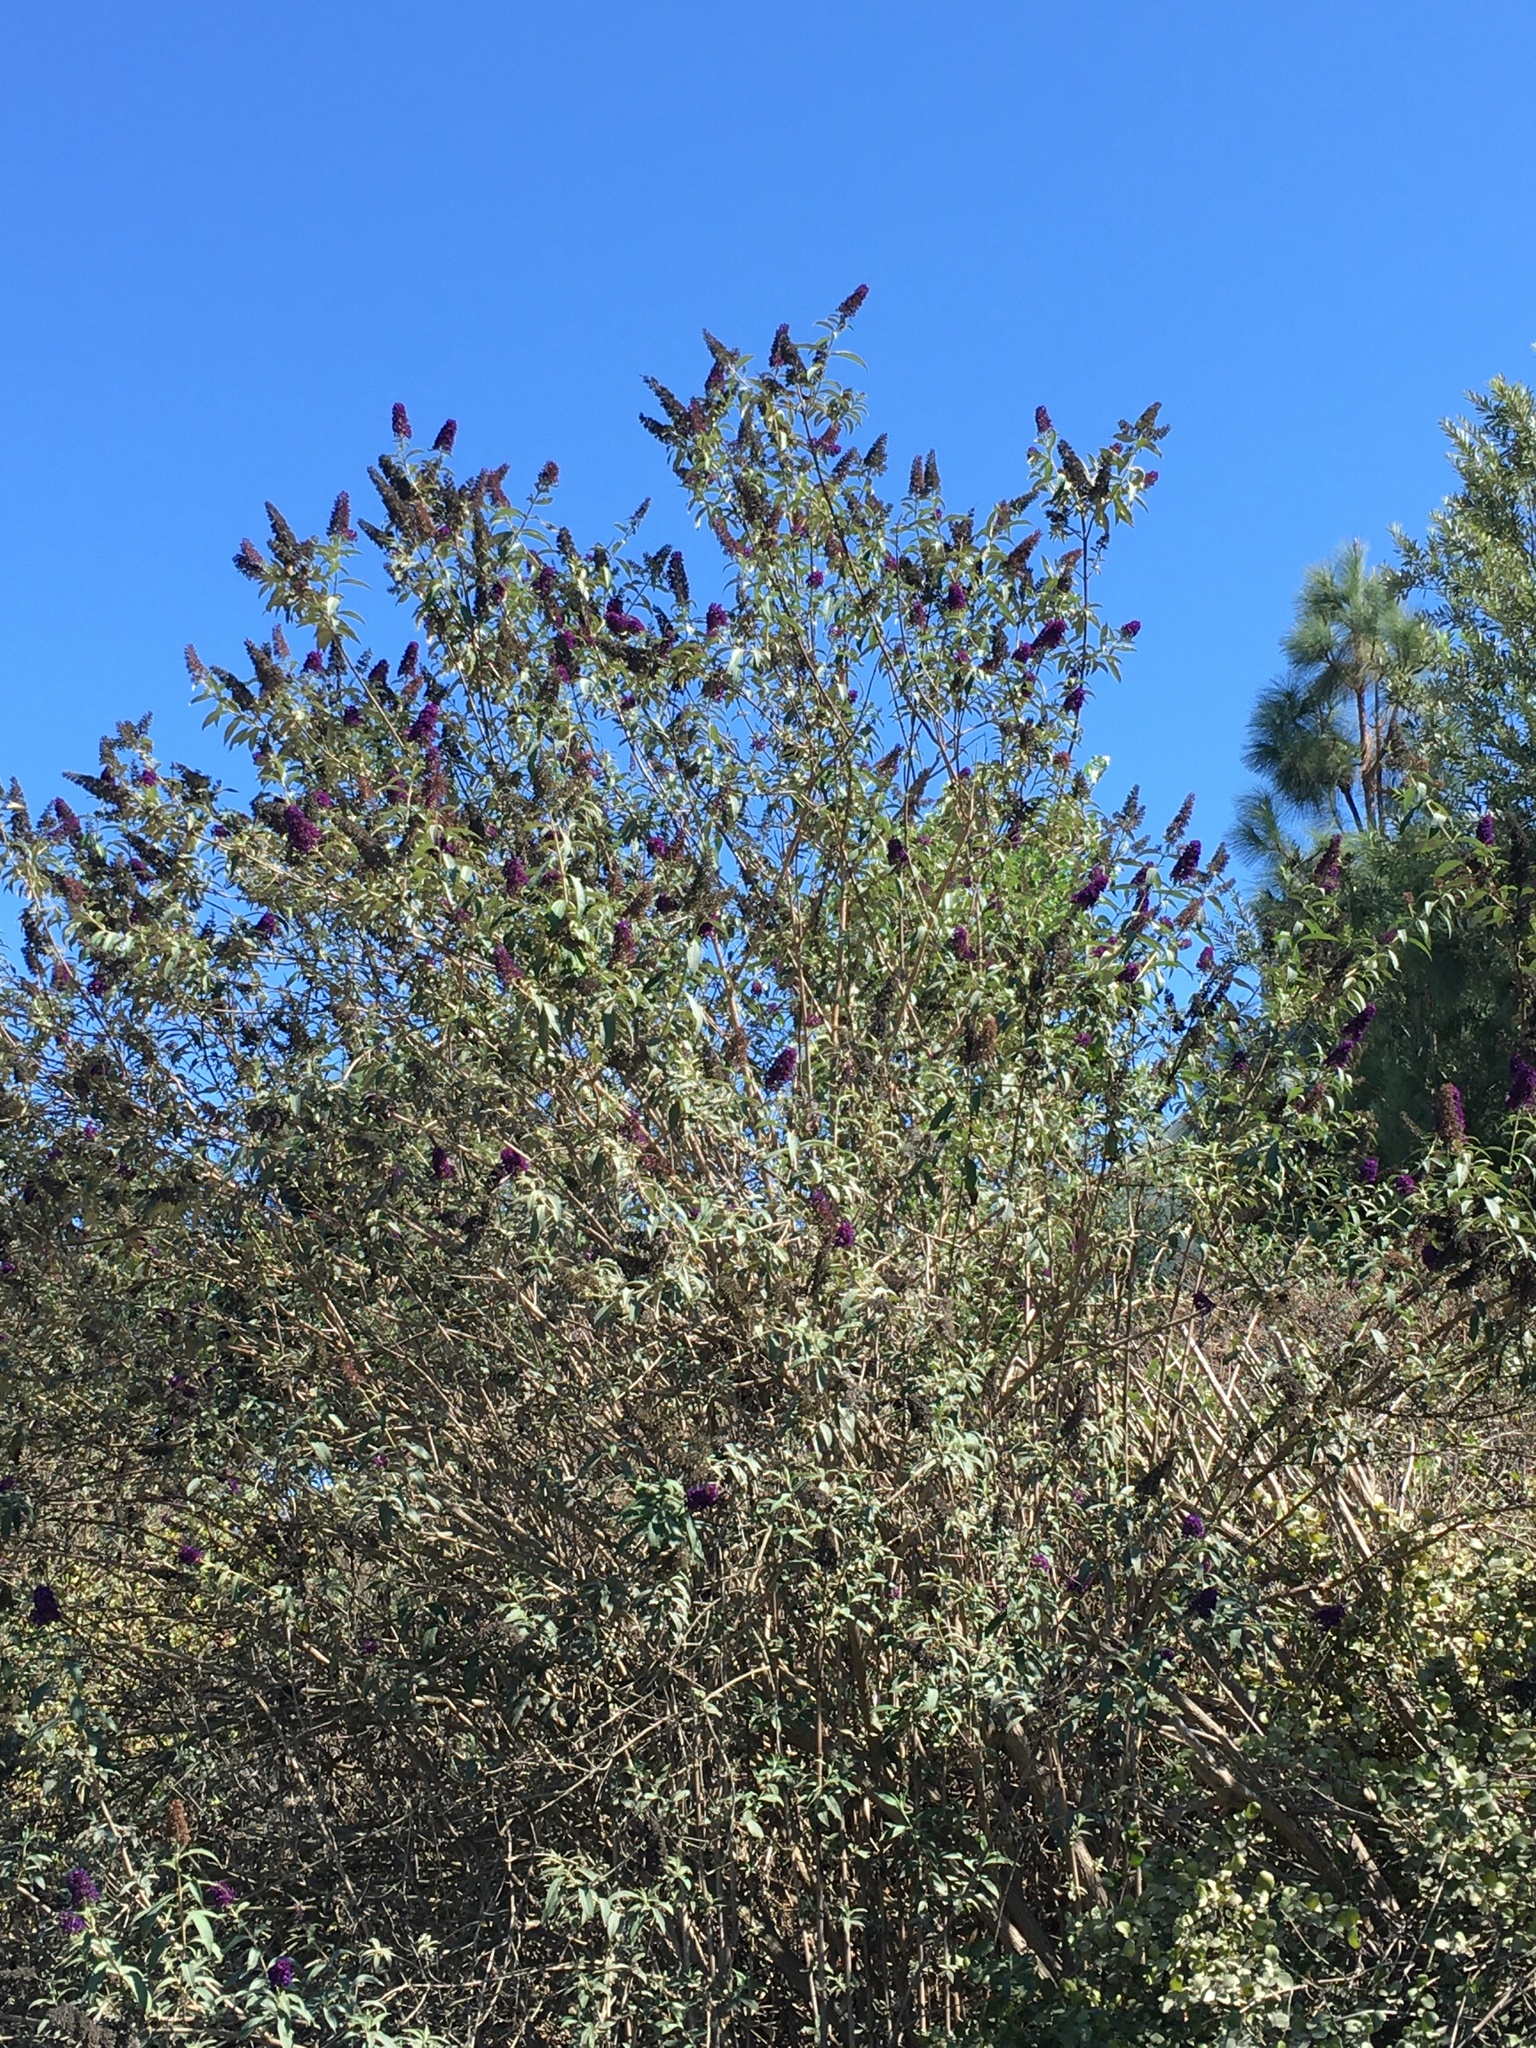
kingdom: Plantae
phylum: Tracheophyta
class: Magnoliopsida
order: Lamiales
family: Scrophulariaceae
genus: Buddleja
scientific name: Buddleja davidii
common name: Butterfly-bush
